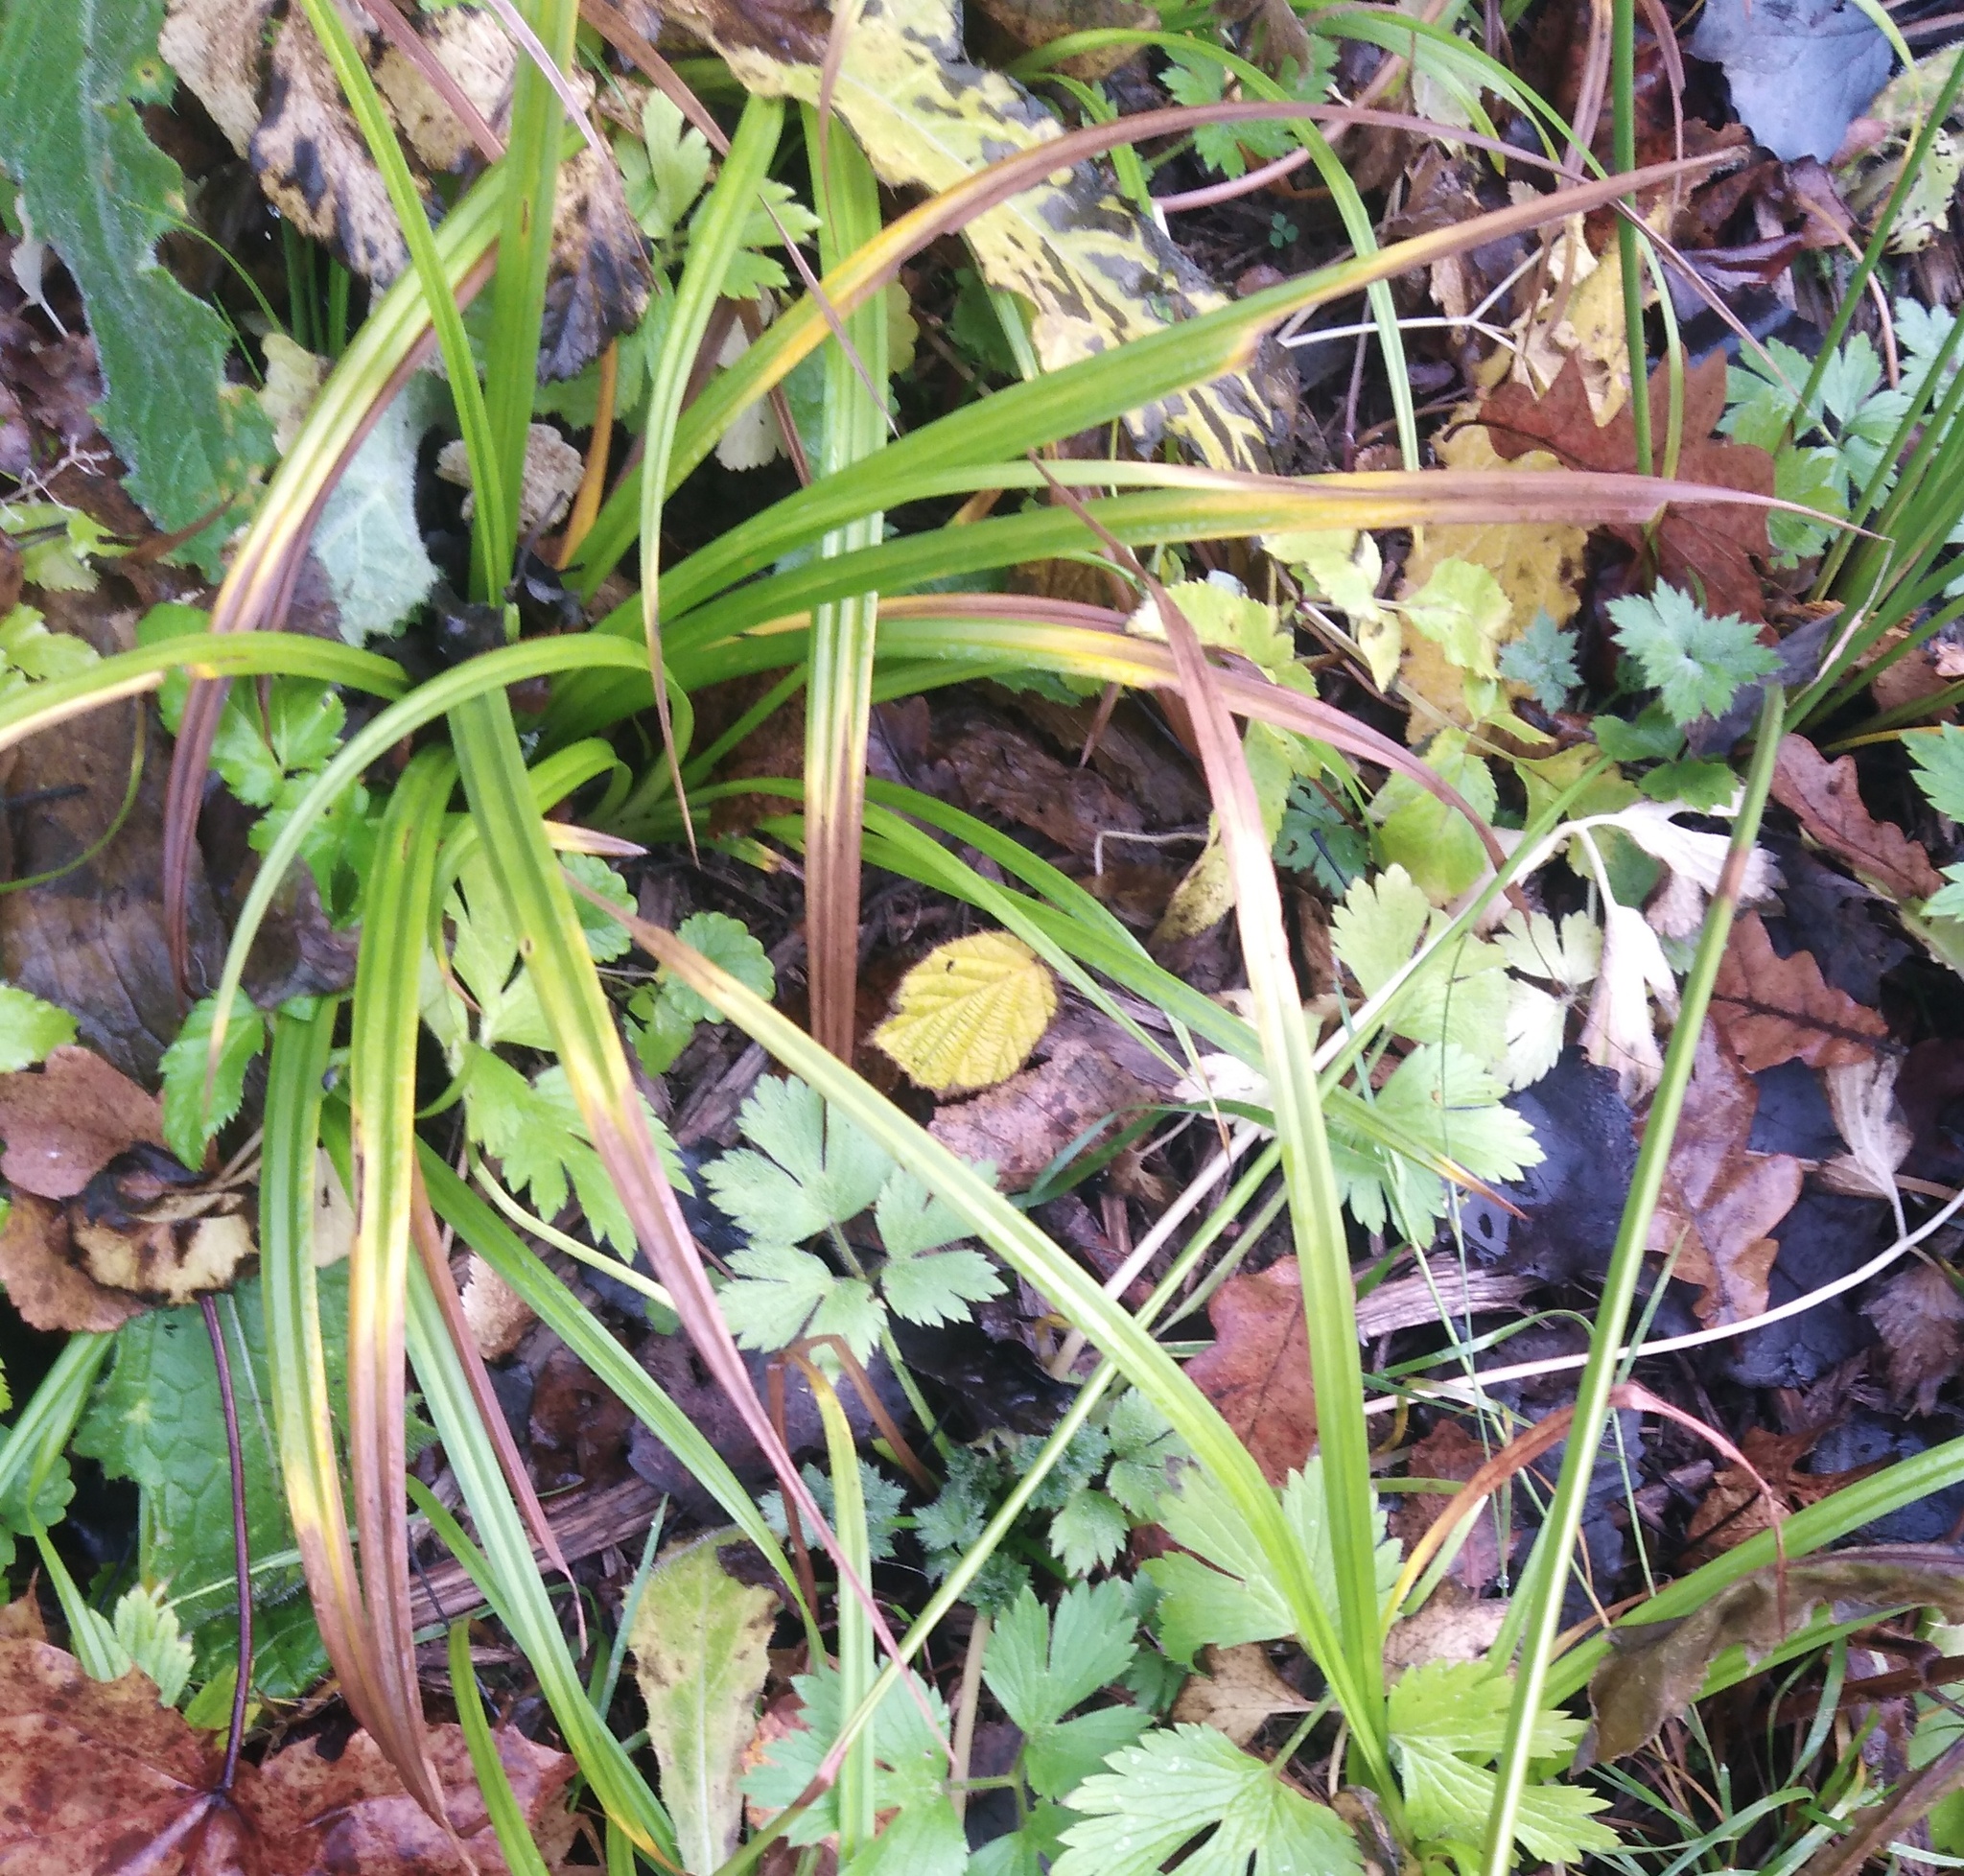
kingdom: Plantae
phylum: Tracheophyta
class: Liliopsida
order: Poales
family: Cyperaceae
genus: Carex
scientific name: Carex sylvatica
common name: Wood-sedge
